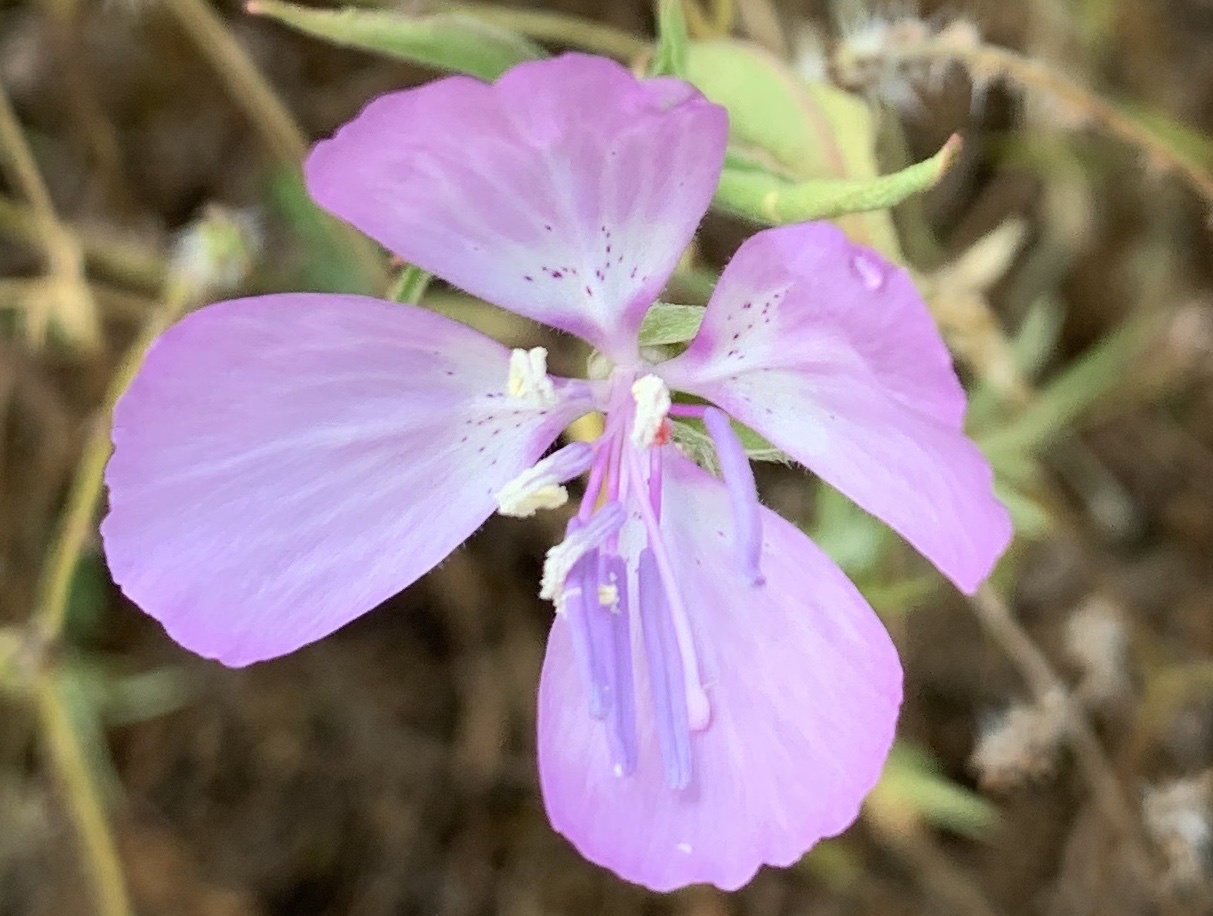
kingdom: Plantae
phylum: Tracheophyta
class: Magnoliopsida
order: Myrtales
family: Onagraceae
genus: Clarkia
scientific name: Clarkia bottae
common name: Punch-bowl godetia
